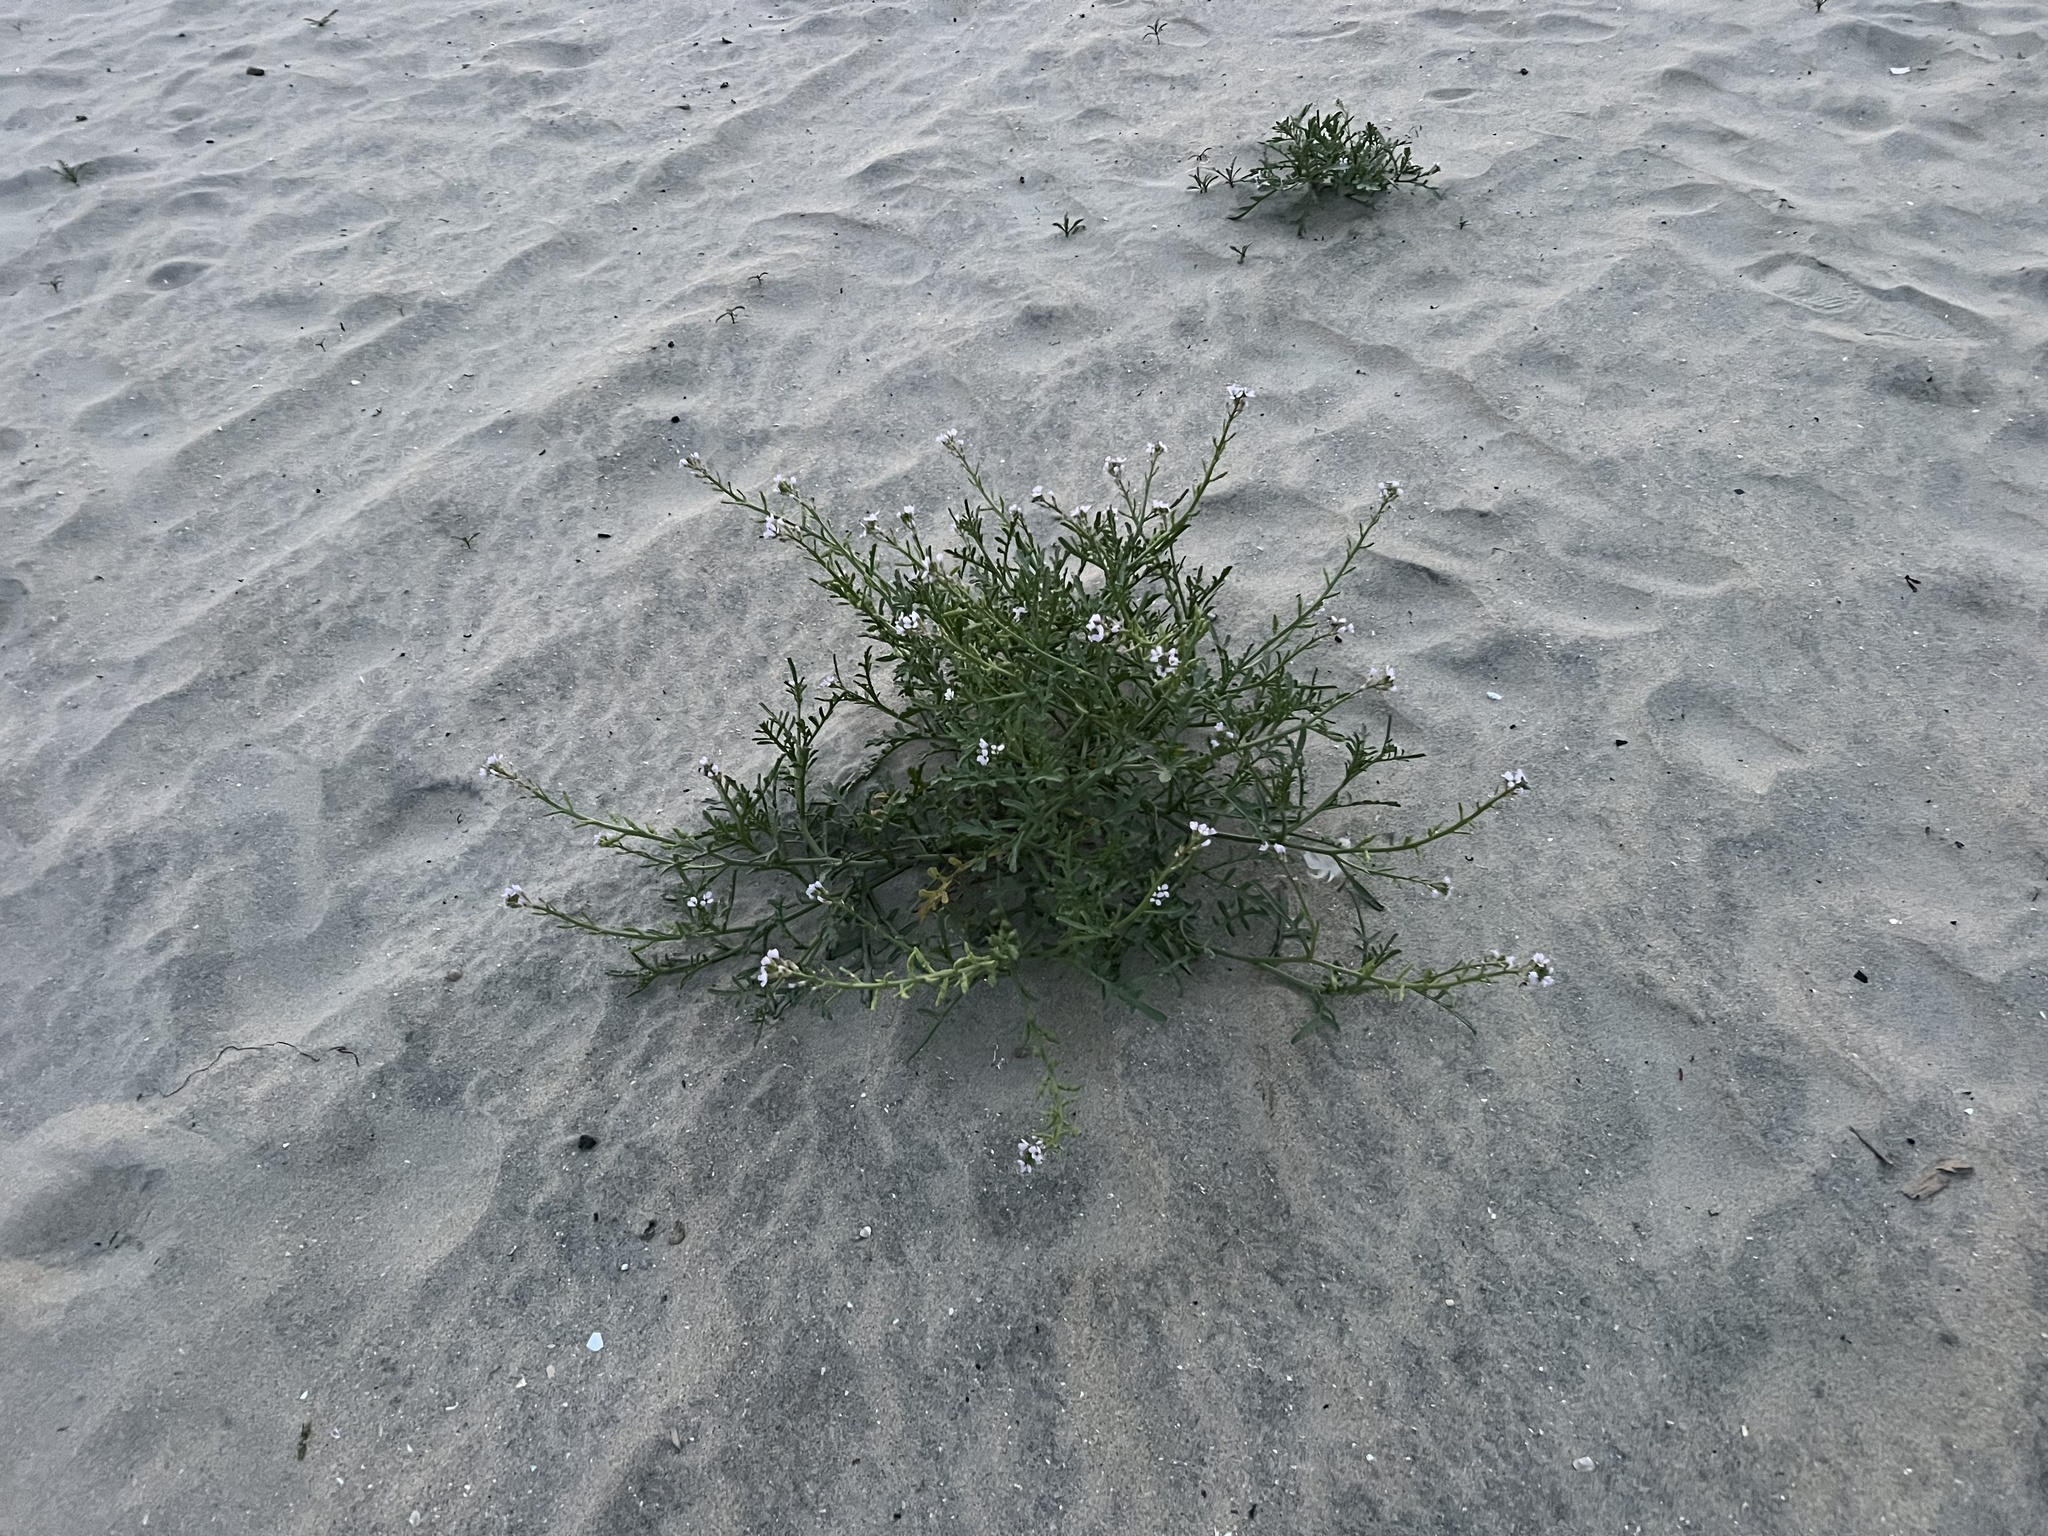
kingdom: Plantae
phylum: Tracheophyta
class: Magnoliopsida
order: Brassicales
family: Brassicaceae
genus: Cakile
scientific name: Cakile maritima
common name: Sea rocket
